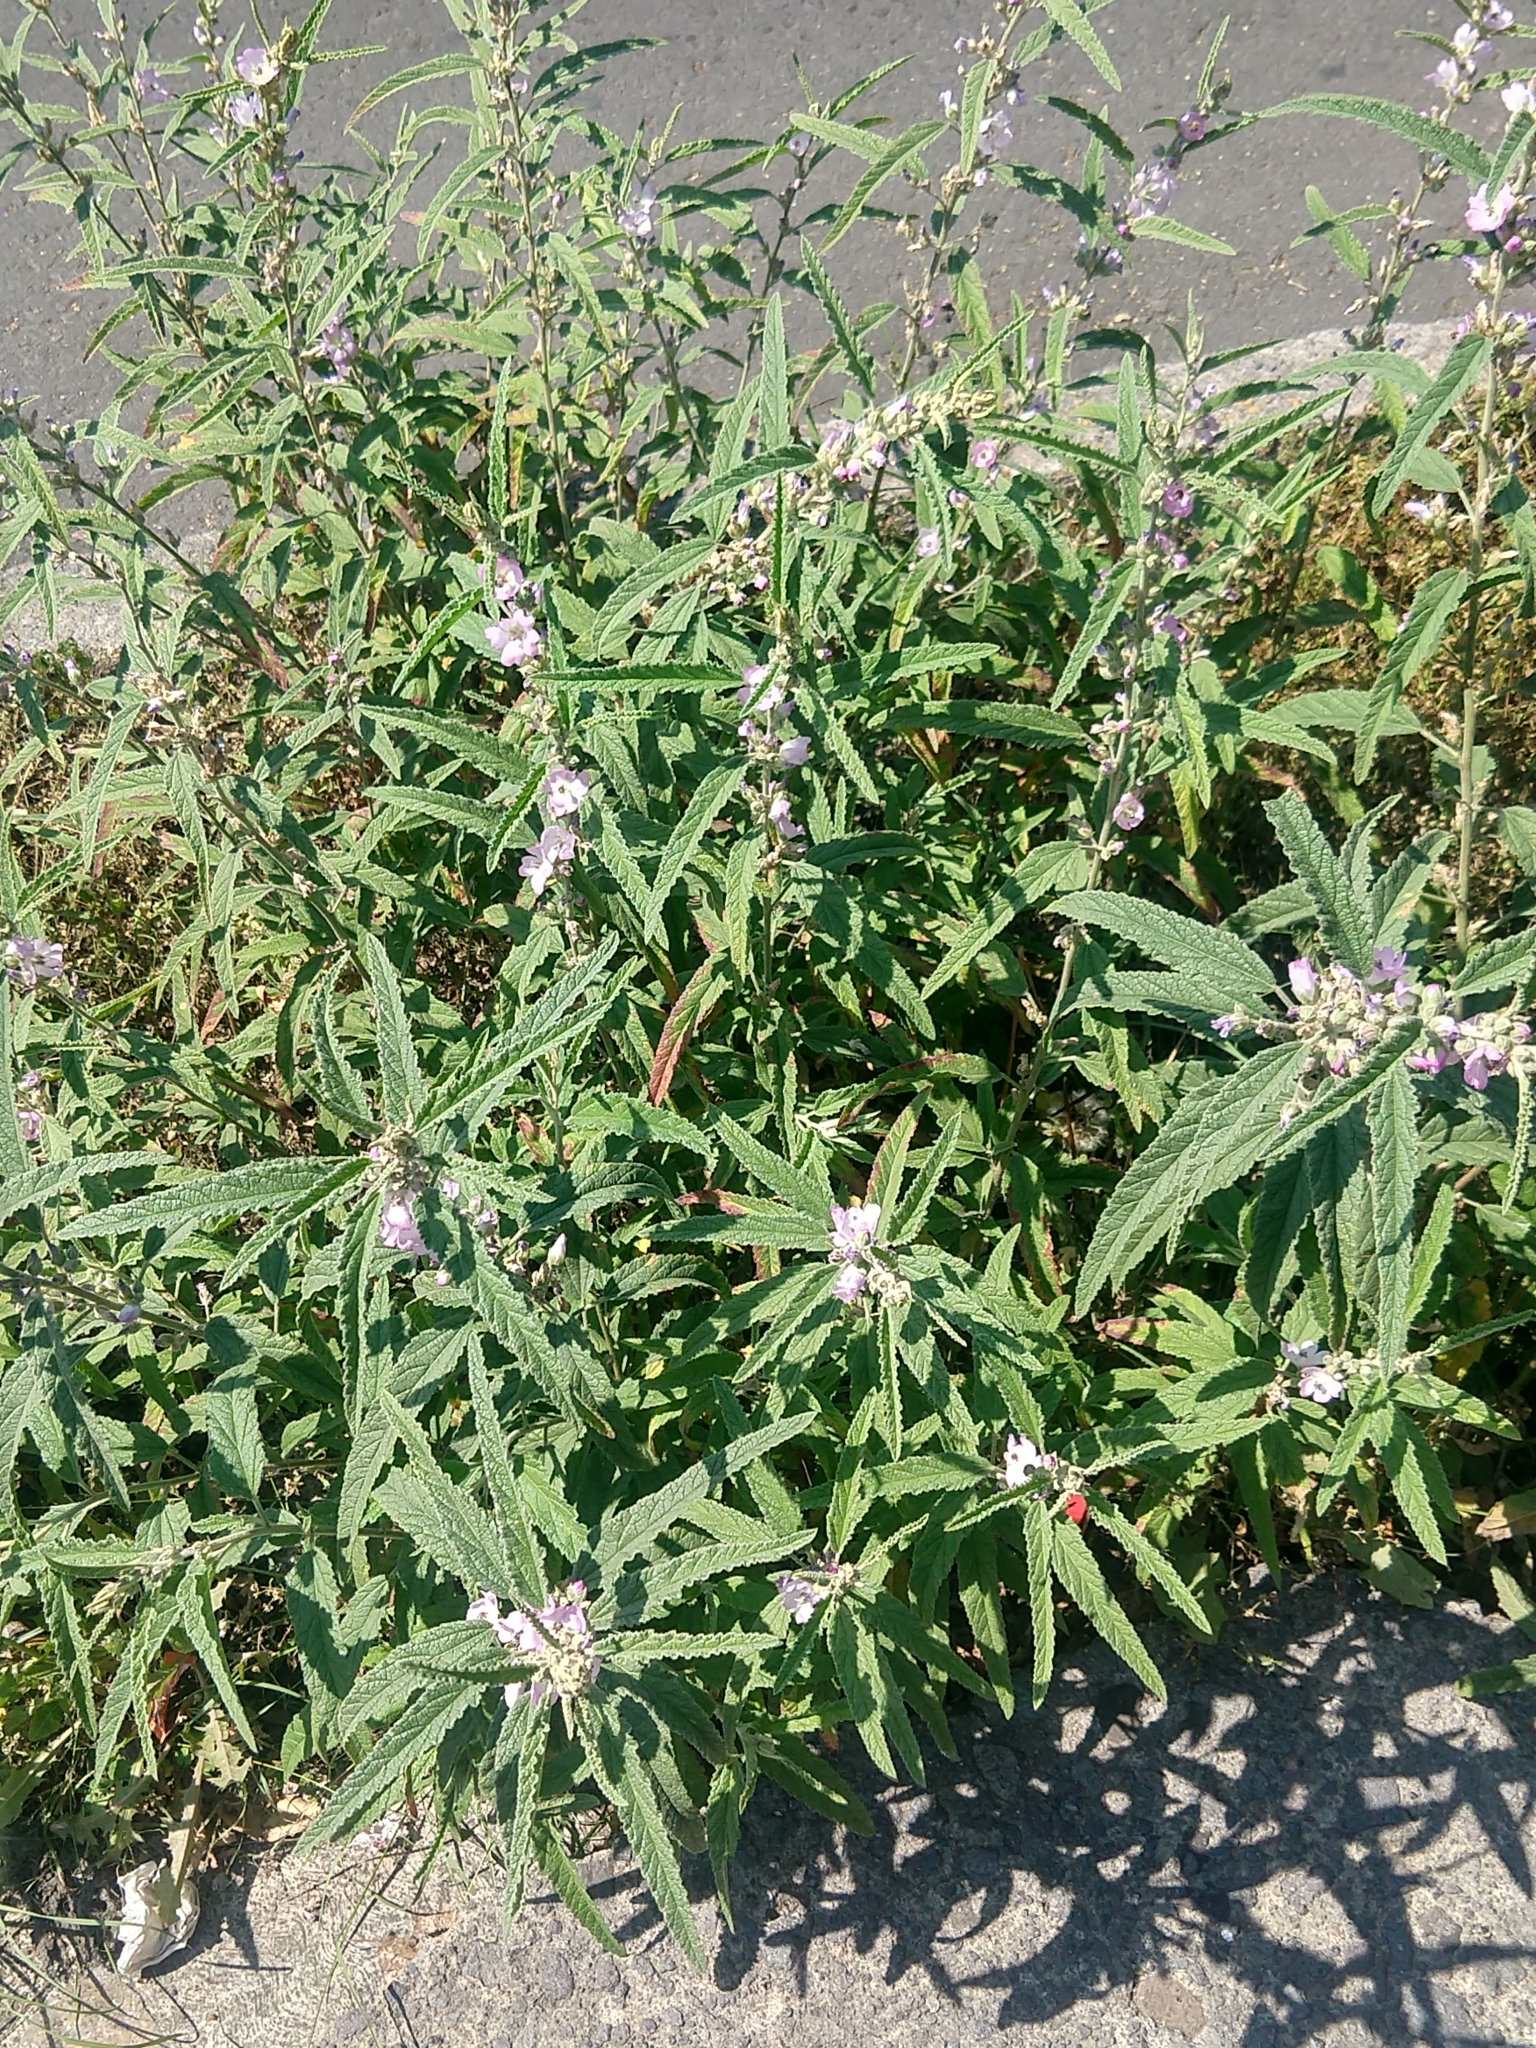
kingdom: Plantae
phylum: Tracheophyta
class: Magnoliopsida
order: Malvales
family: Malvaceae
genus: Sphaeralcea
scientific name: Sphaeralcea angustifolia
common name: Copper globe-mallow
